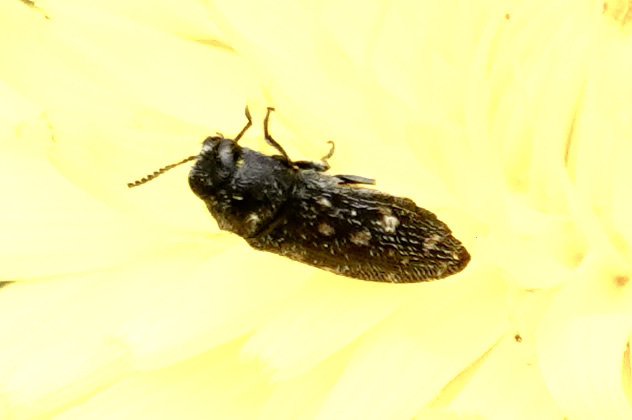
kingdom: Animalia
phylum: Arthropoda
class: Insecta
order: Coleoptera
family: Buprestidae
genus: Acmaeodera
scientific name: Acmaeodera tubulus
